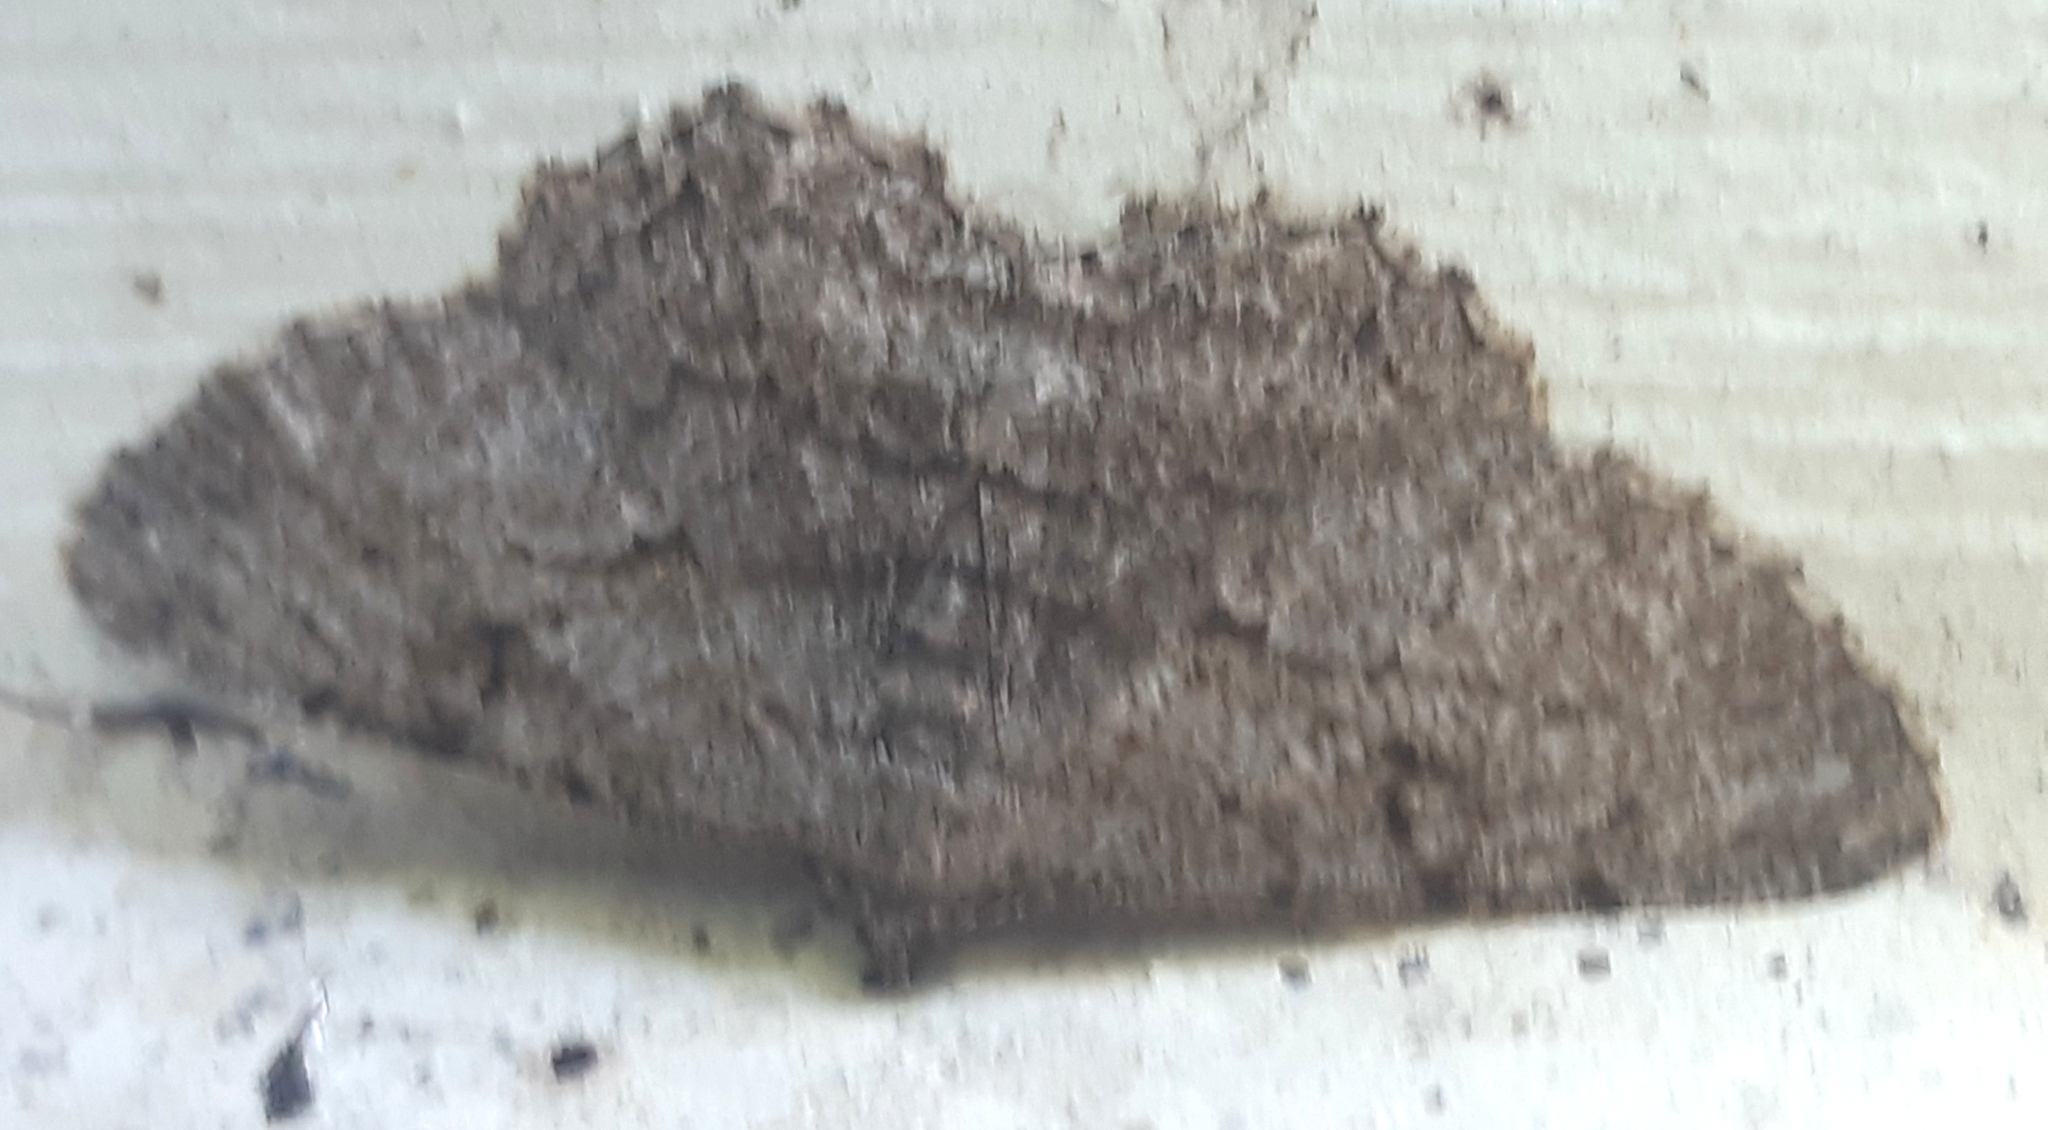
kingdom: Animalia
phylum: Arthropoda
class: Insecta
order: Lepidoptera
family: Geometridae
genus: Peribatodes
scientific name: Peribatodes rhomboidaria
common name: Willow beauty
